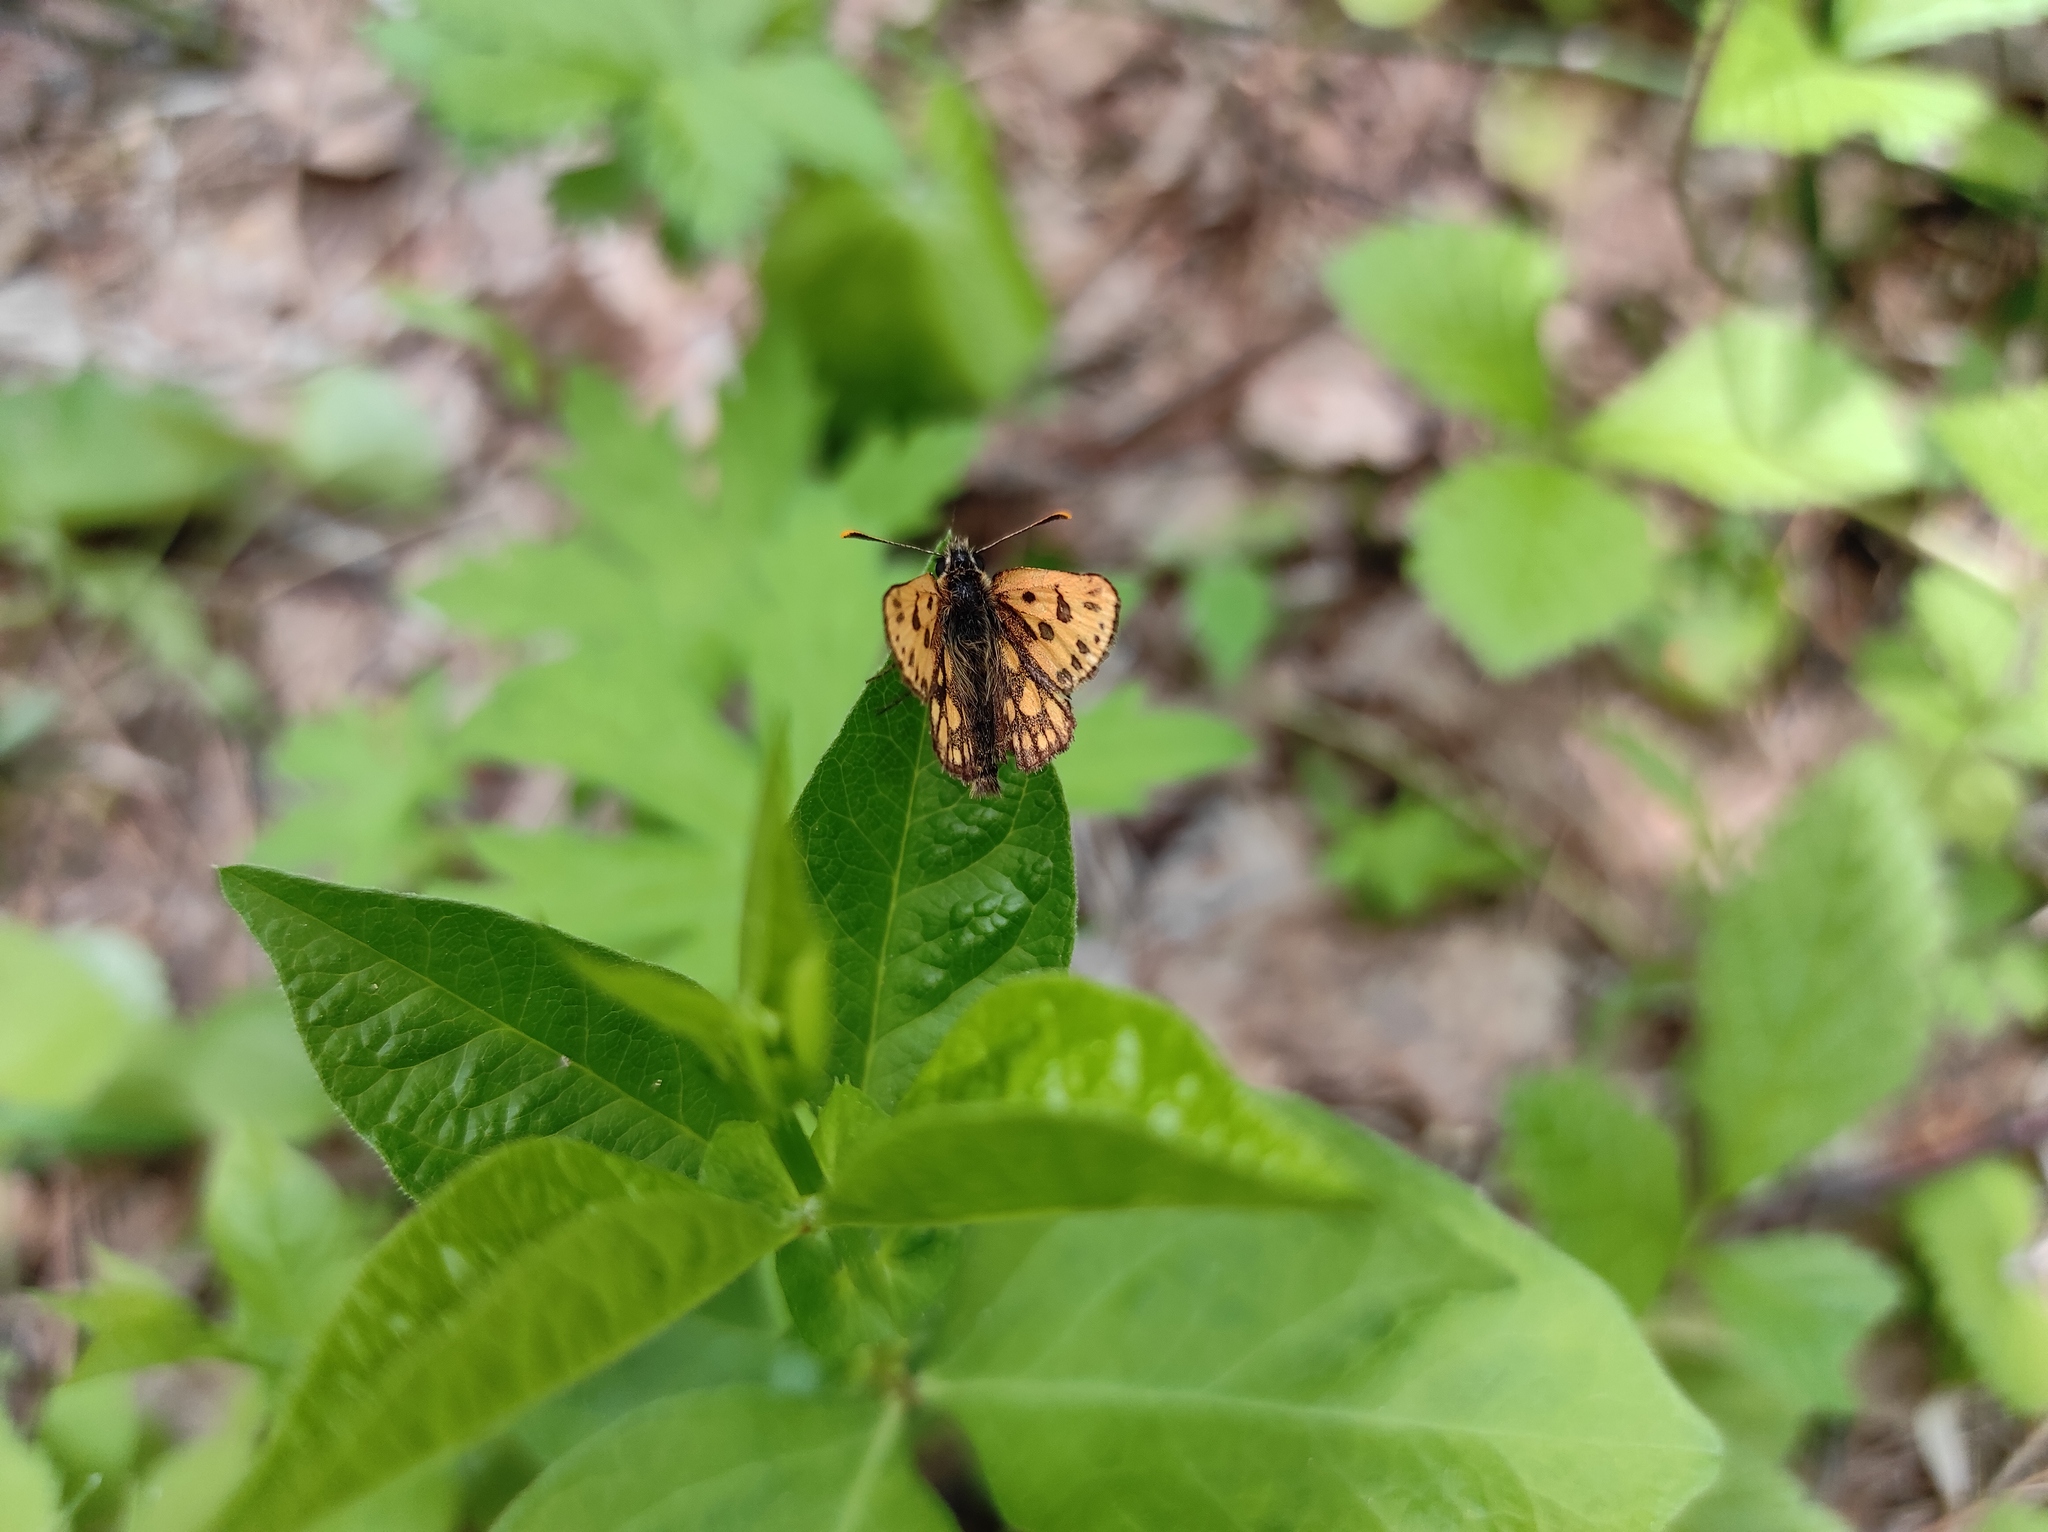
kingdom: Animalia
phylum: Arthropoda
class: Insecta
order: Lepidoptera
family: Hesperiidae
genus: Carterocephalus
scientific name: Carterocephalus silvicola
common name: Northern chequered skipper
